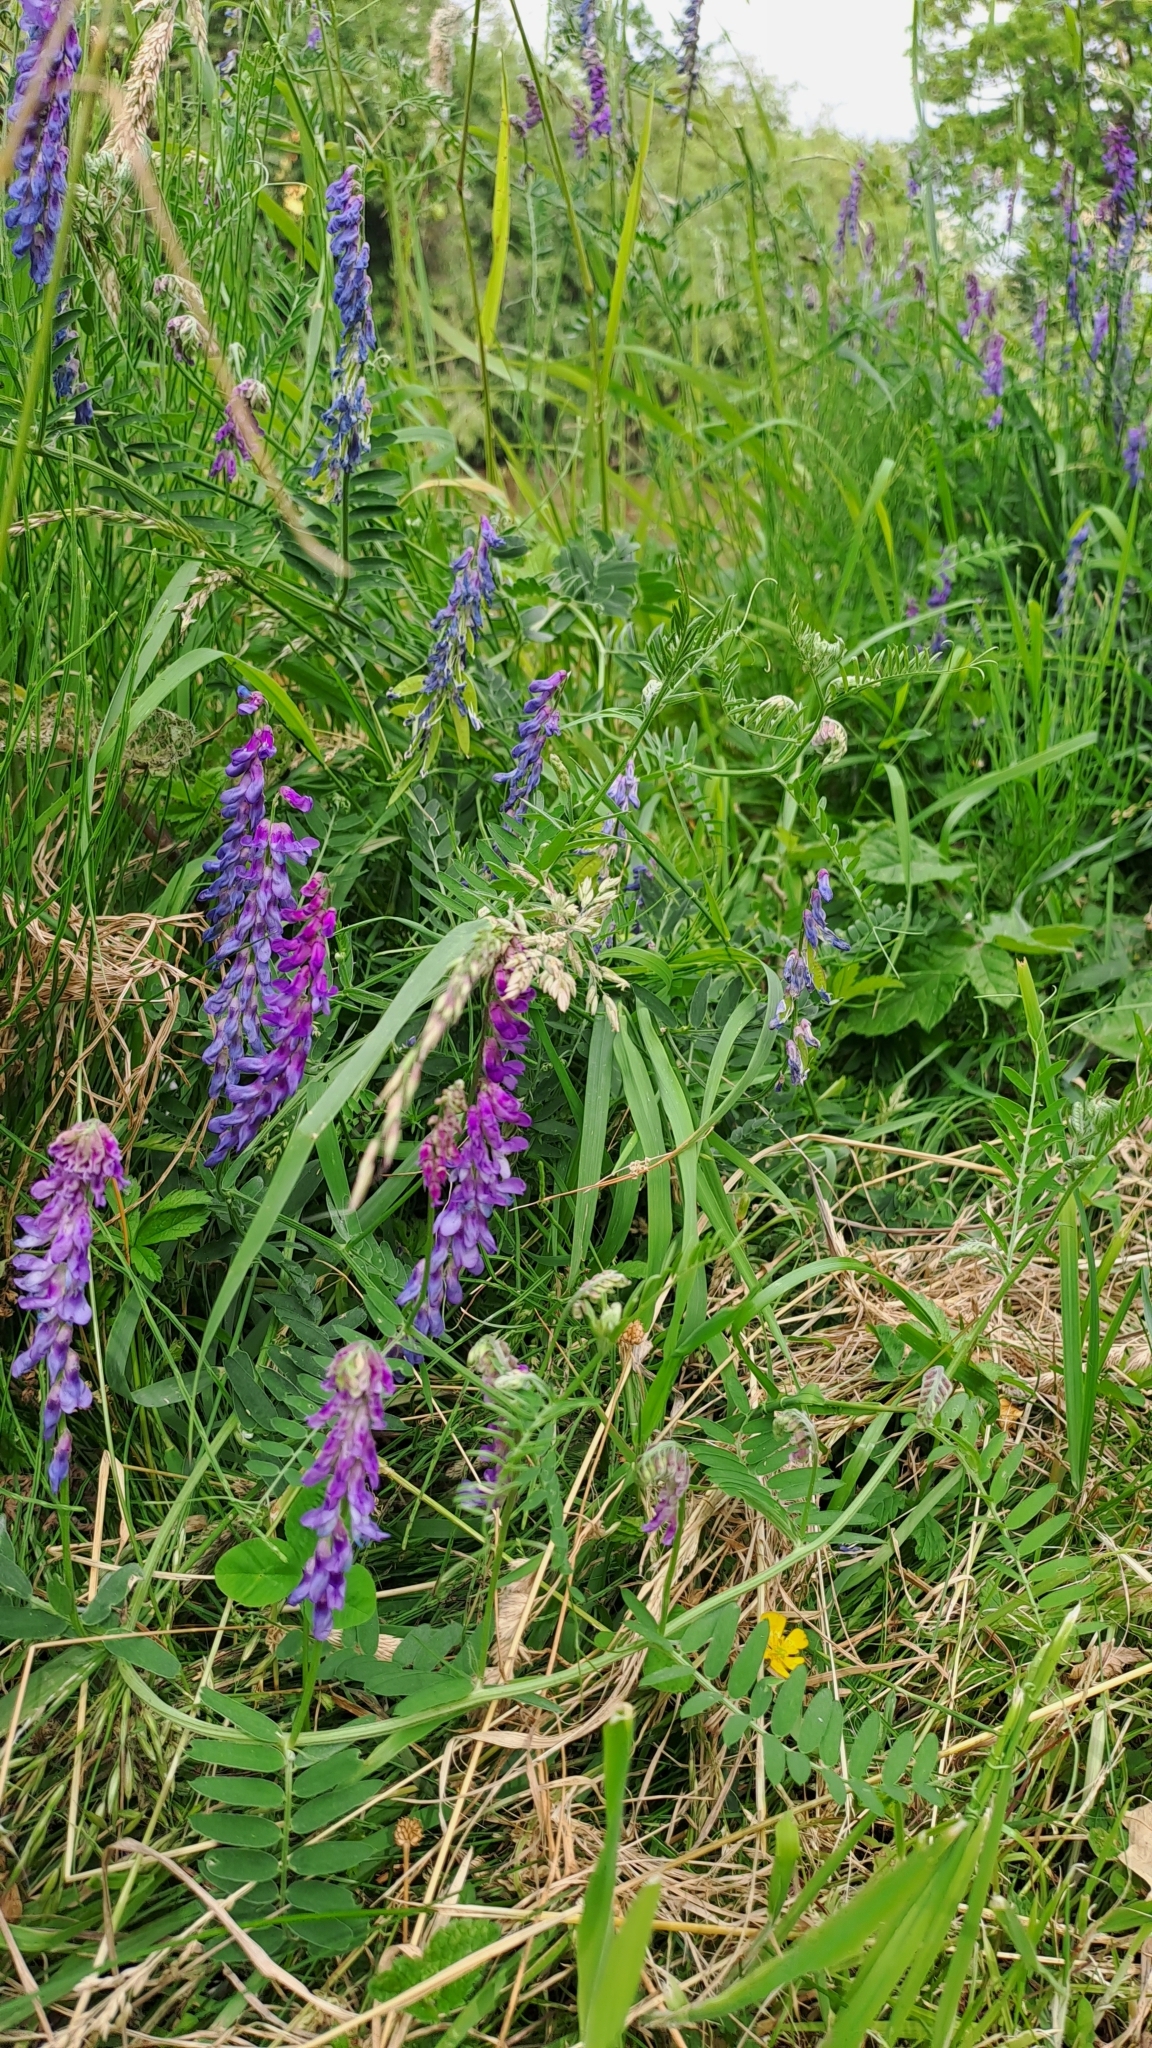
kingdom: Plantae
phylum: Tracheophyta
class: Magnoliopsida
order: Fabales
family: Fabaceae
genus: Vicia
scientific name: Vicia cracca
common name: Bird vetch
